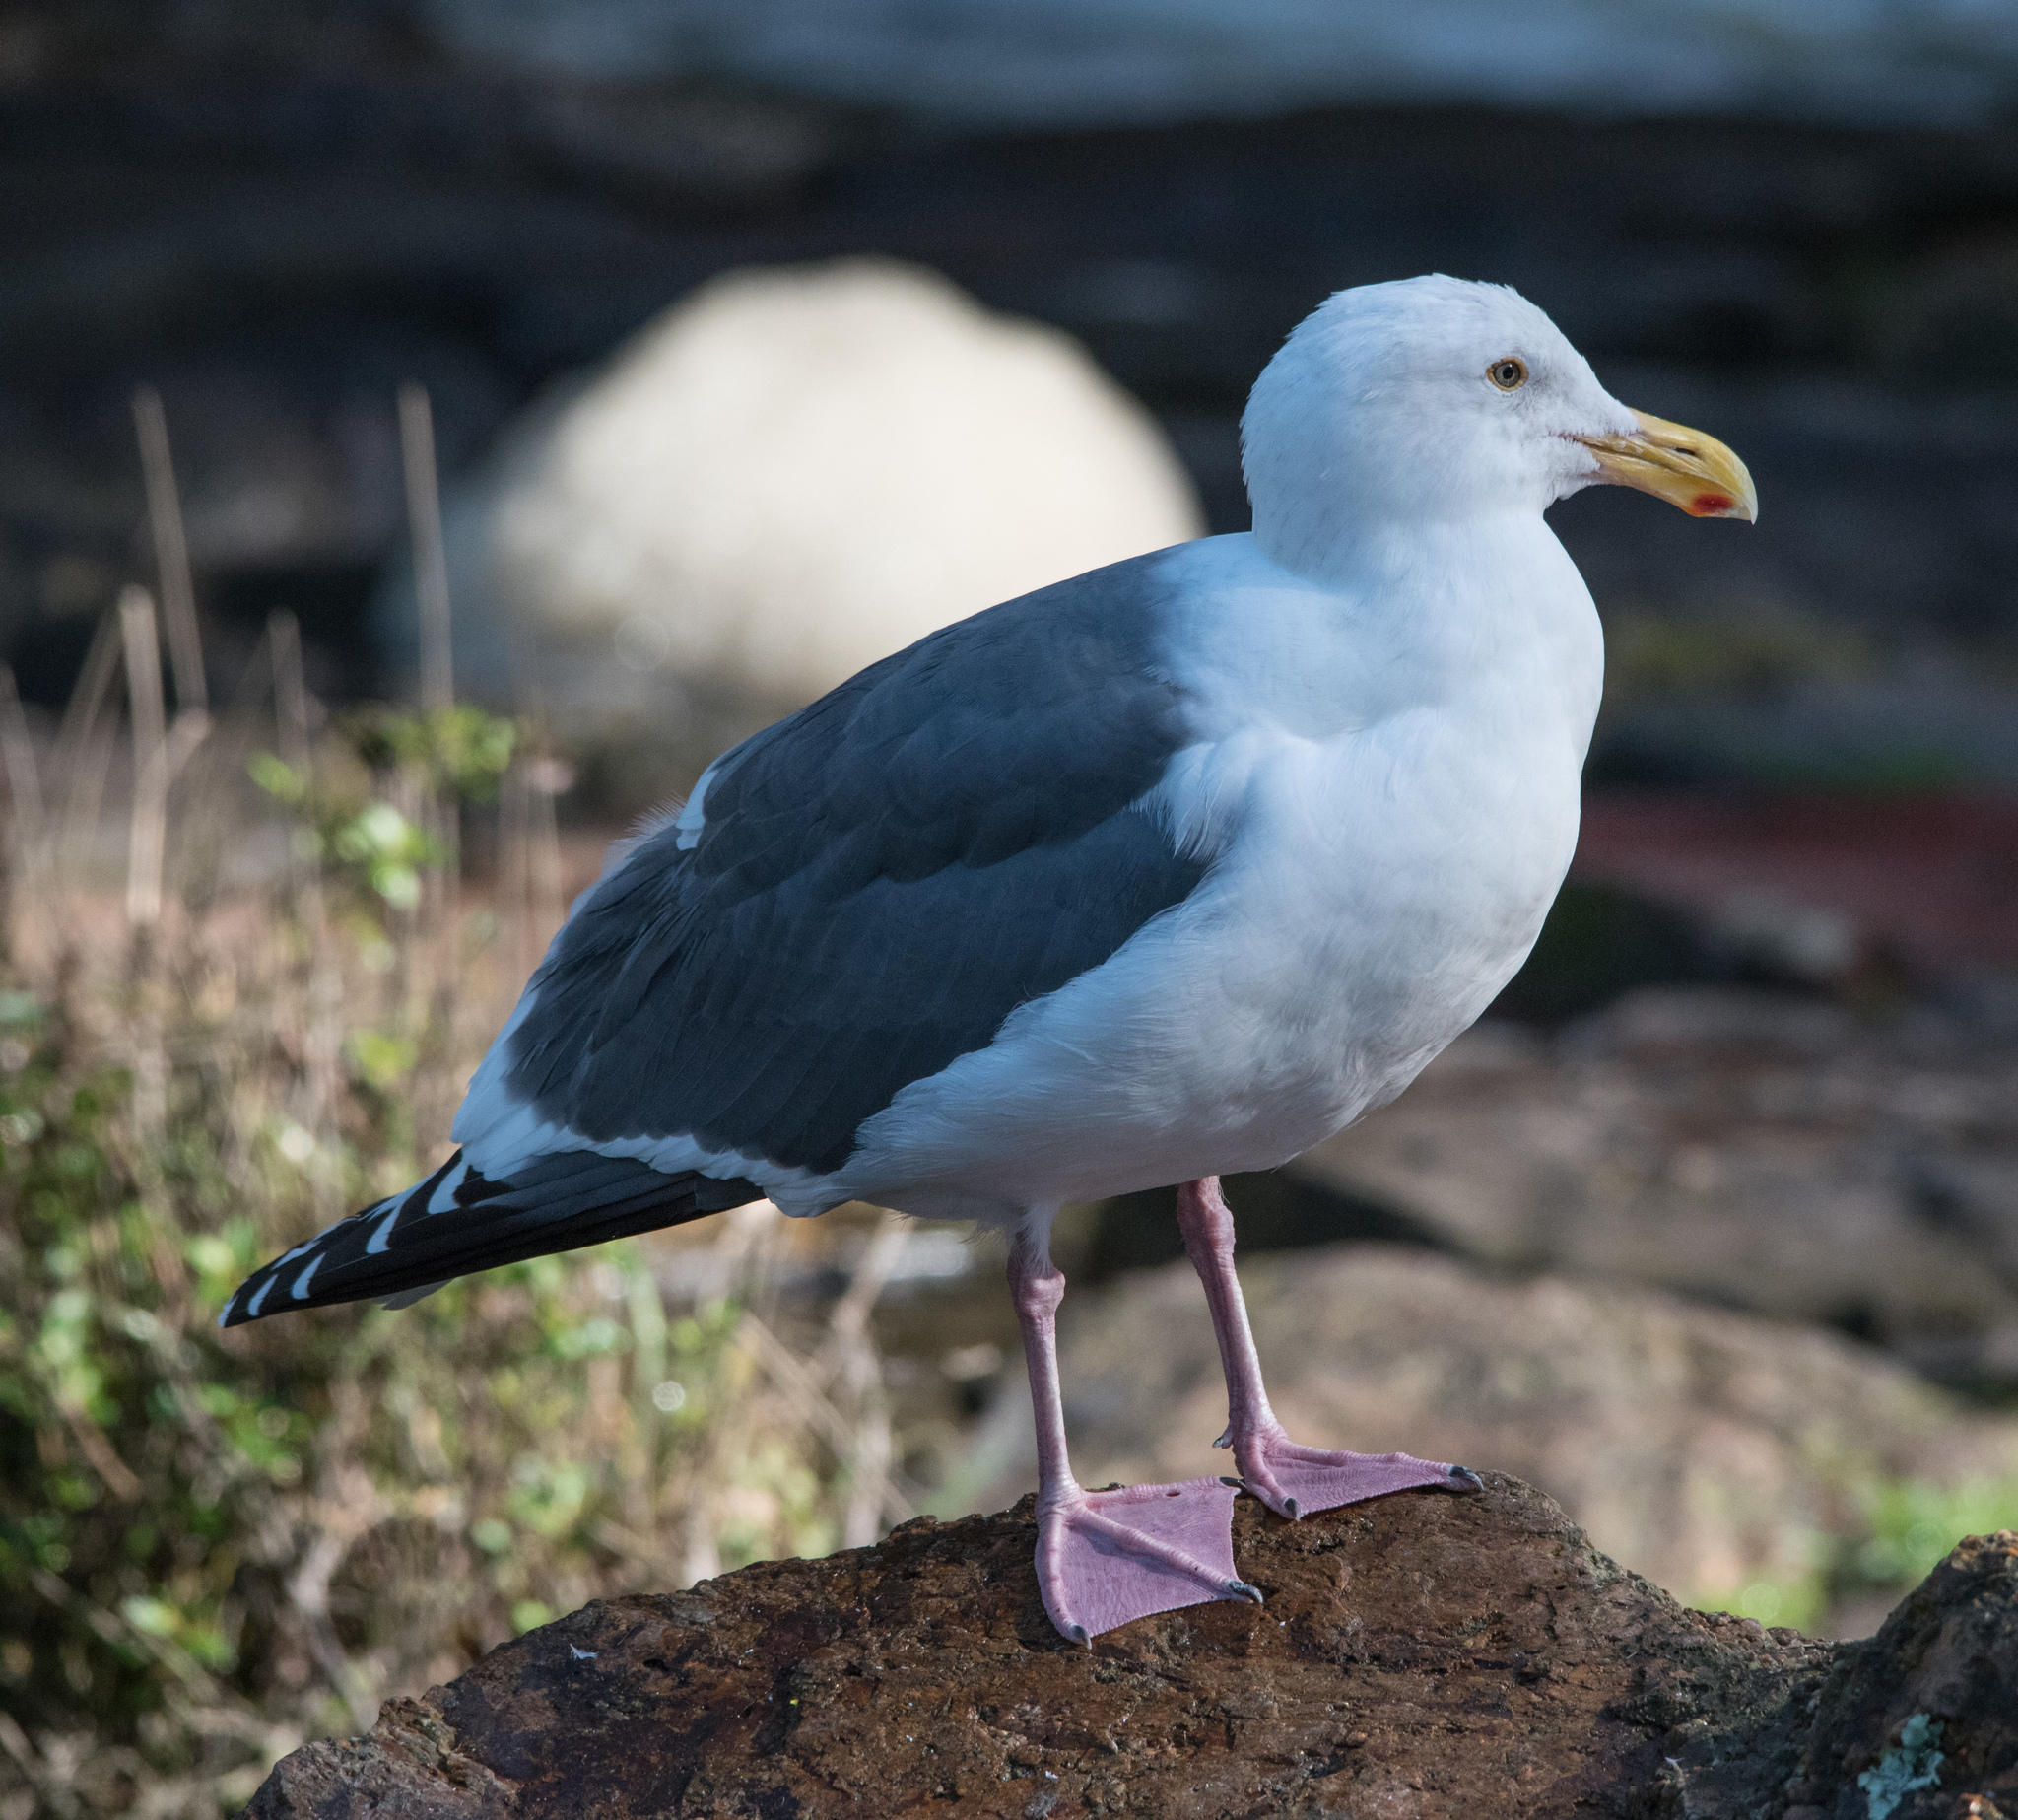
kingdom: Animalia
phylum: Chordata
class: Aves
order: Charadriiformes
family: Laridae
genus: Larus
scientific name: Larus occidentalis
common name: Western gull
